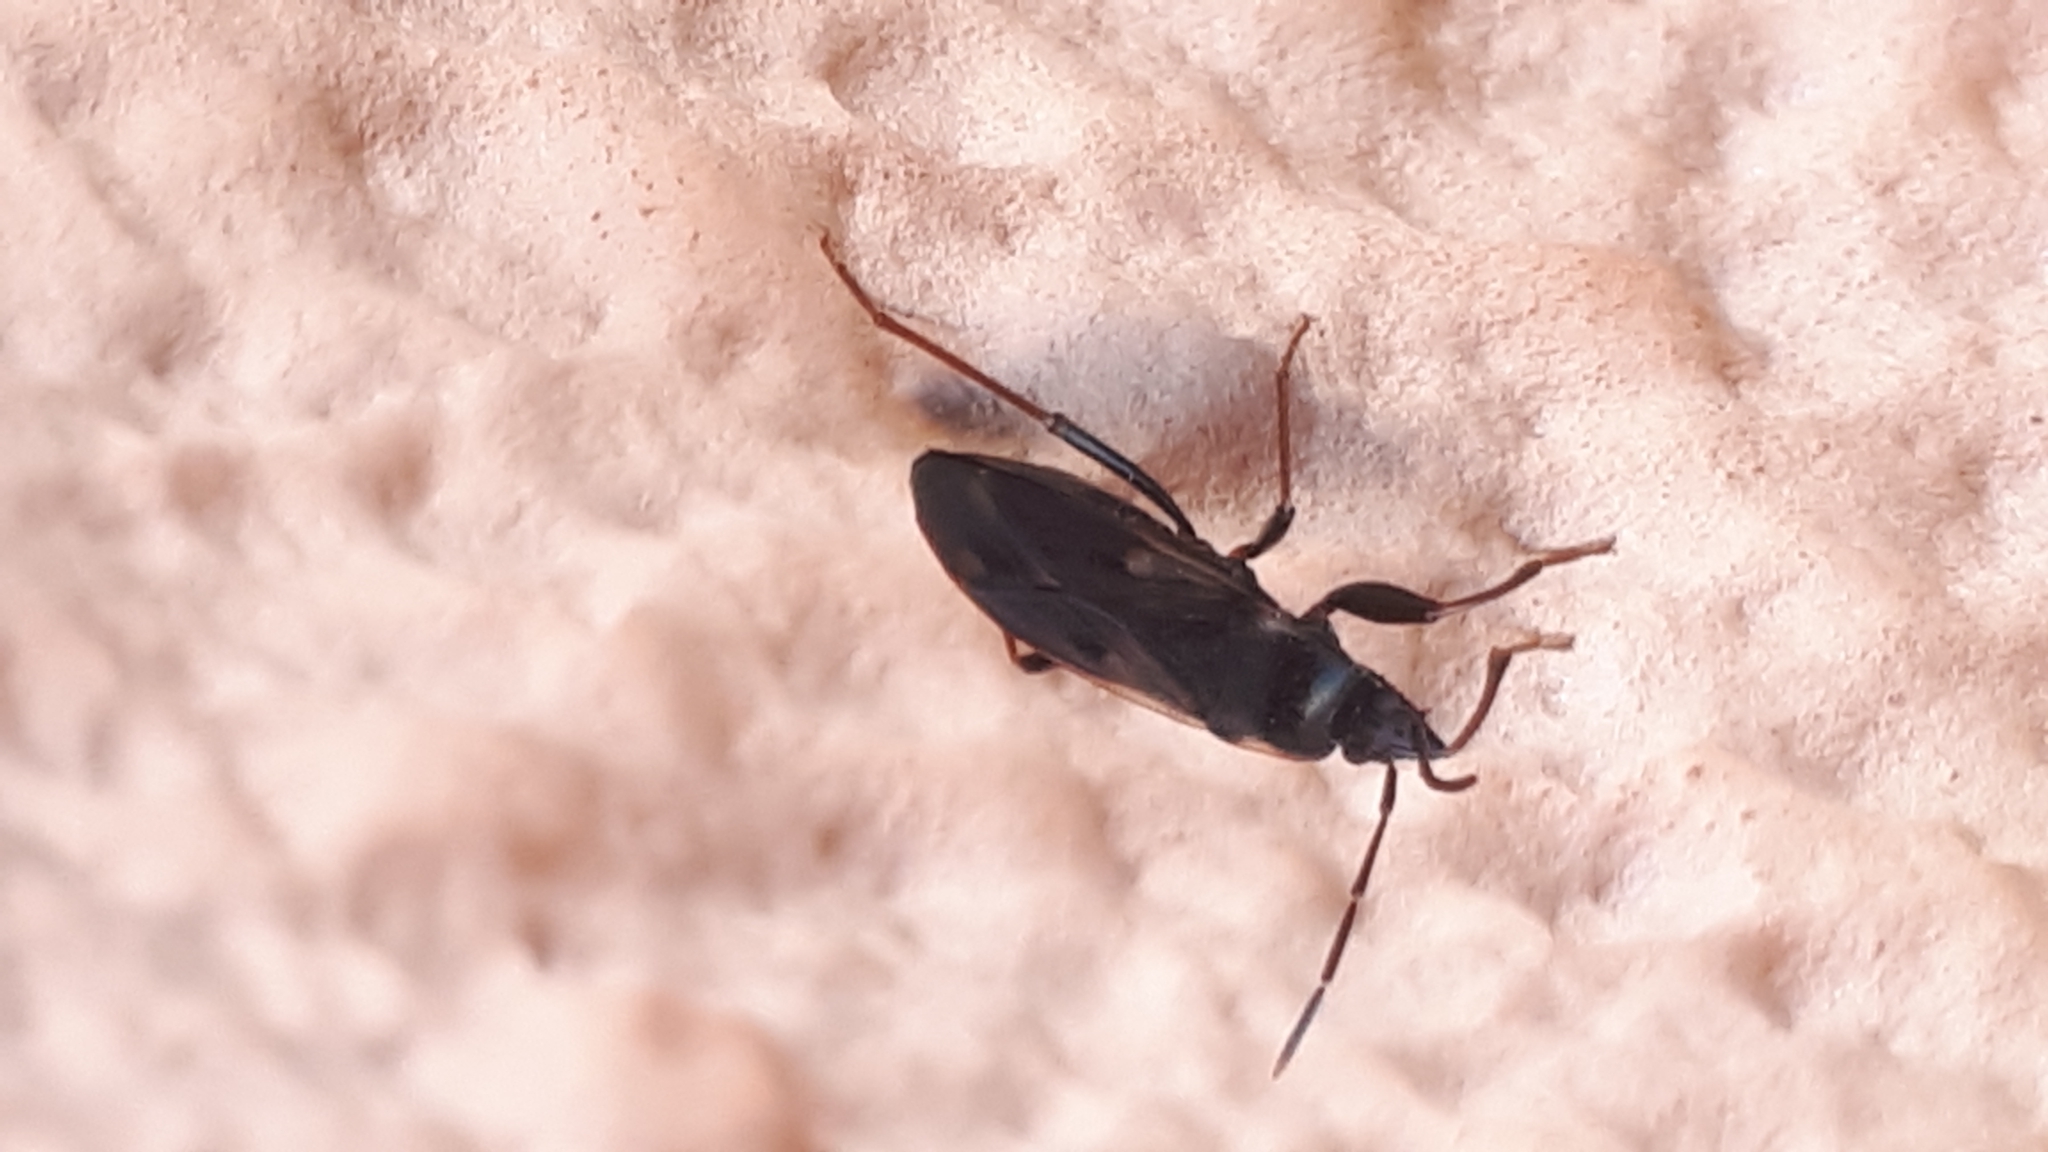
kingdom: Animalia
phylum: Arthropoda
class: Insecta
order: Hemiptera
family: Rhyparochromidae
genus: Eremocoris
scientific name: Eremocoris fenestratus
